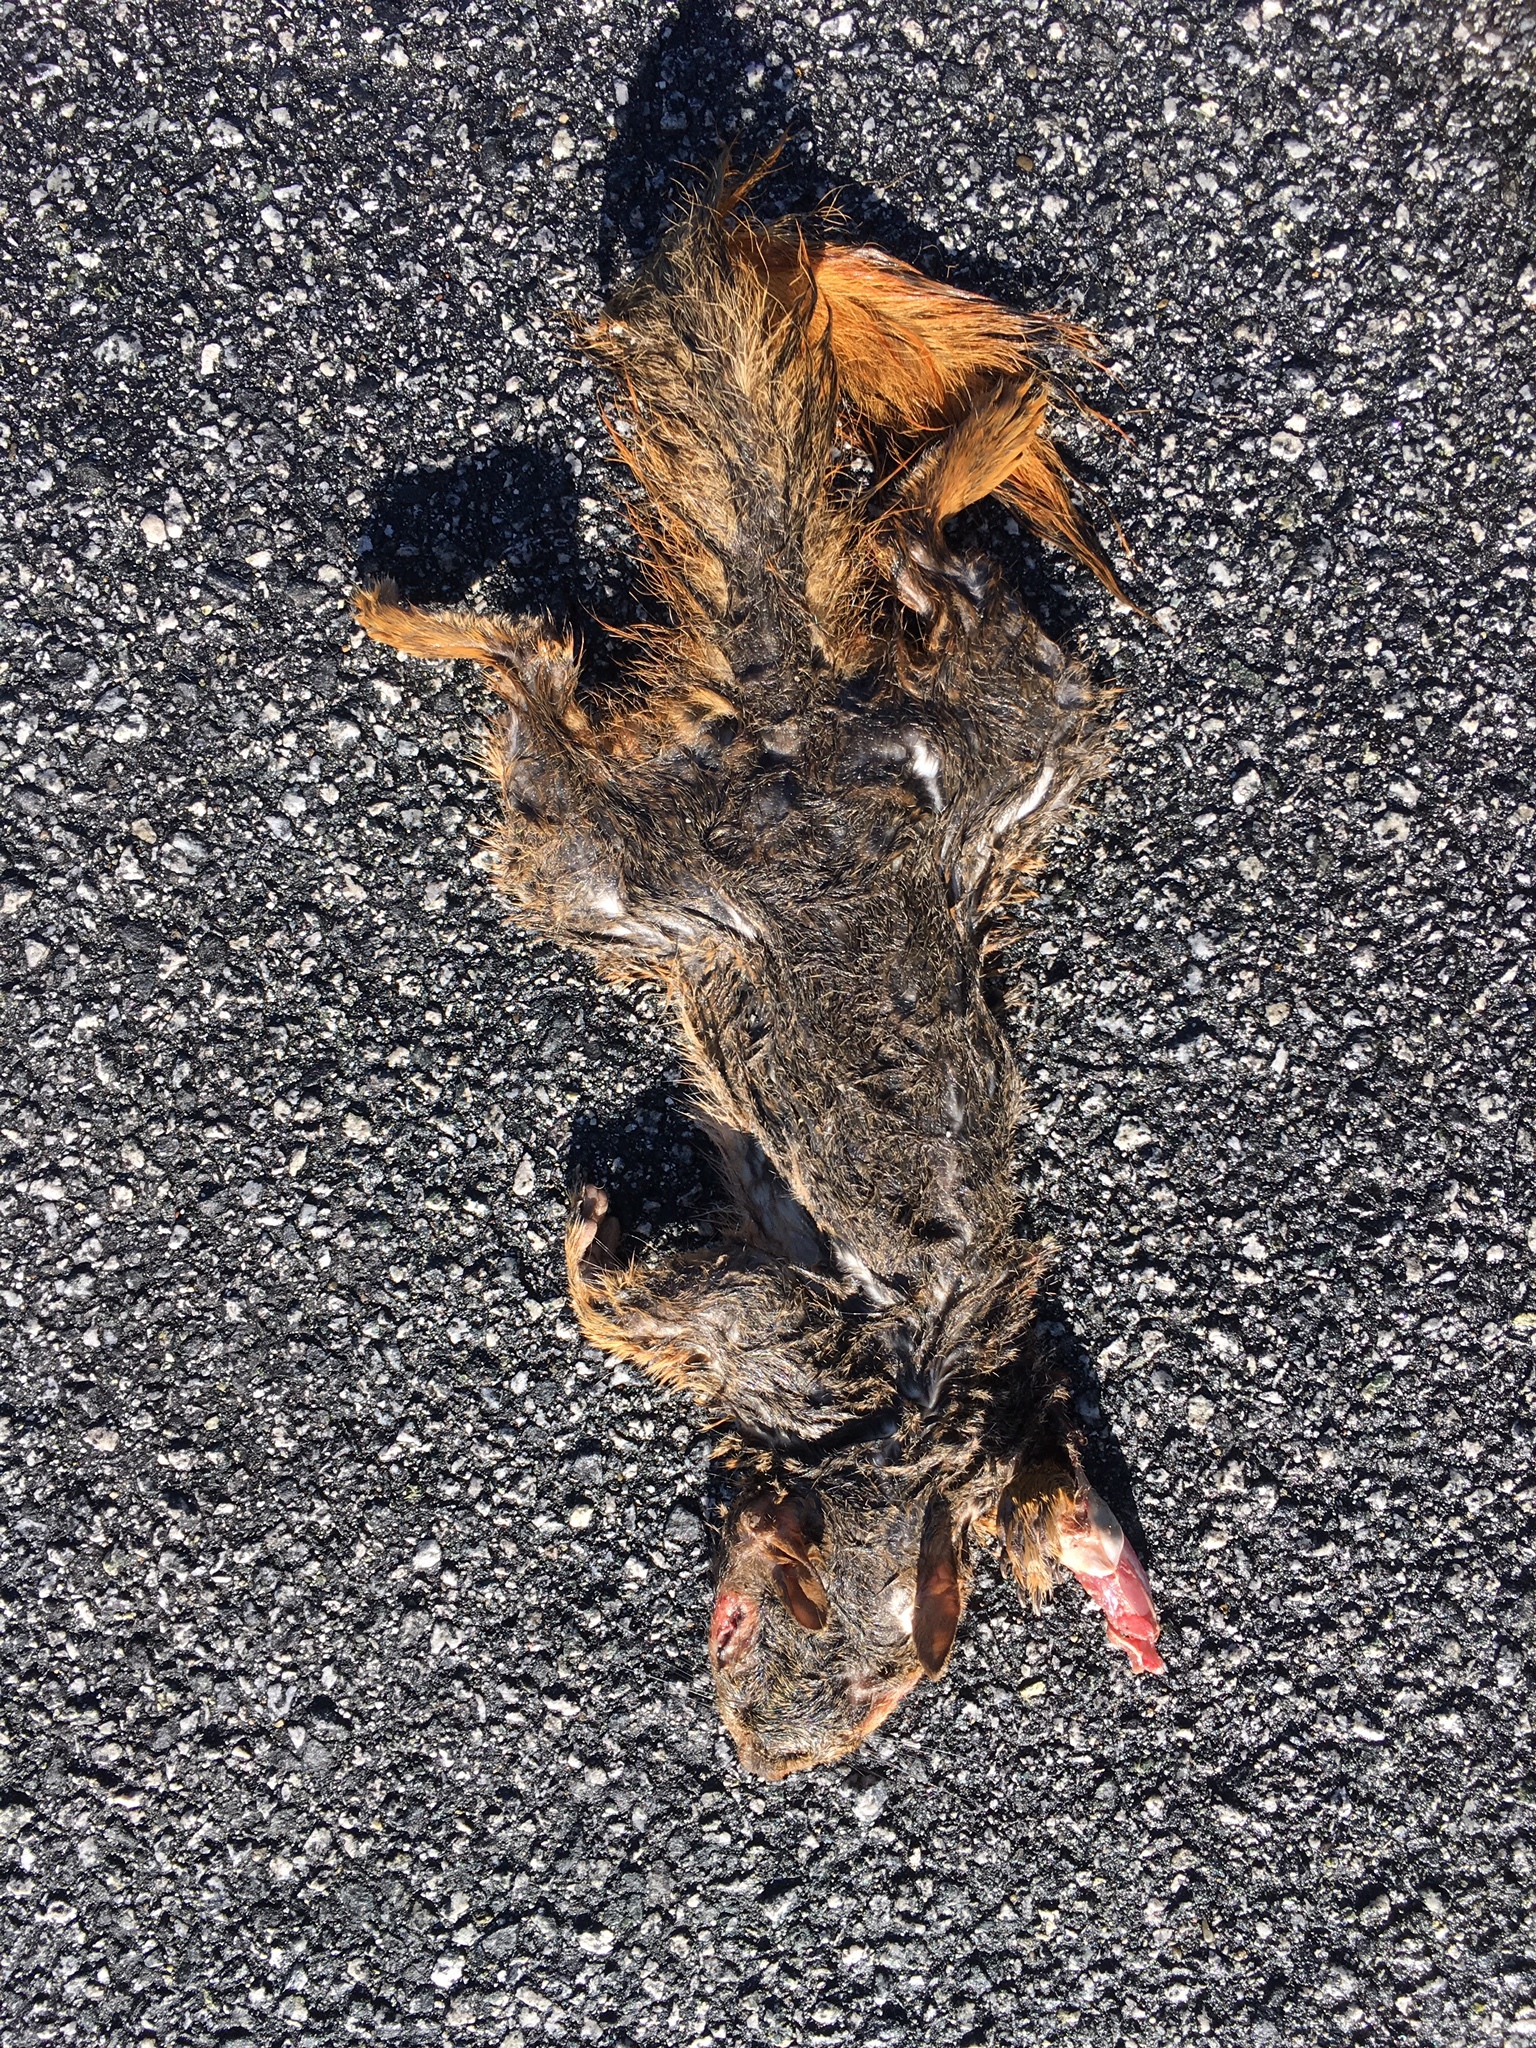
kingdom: Animalia
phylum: Chordata
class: Mammalia
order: Rodentia
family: Sciuridae
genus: Sciurus
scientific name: Sciurus niger
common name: Fox squirrel
